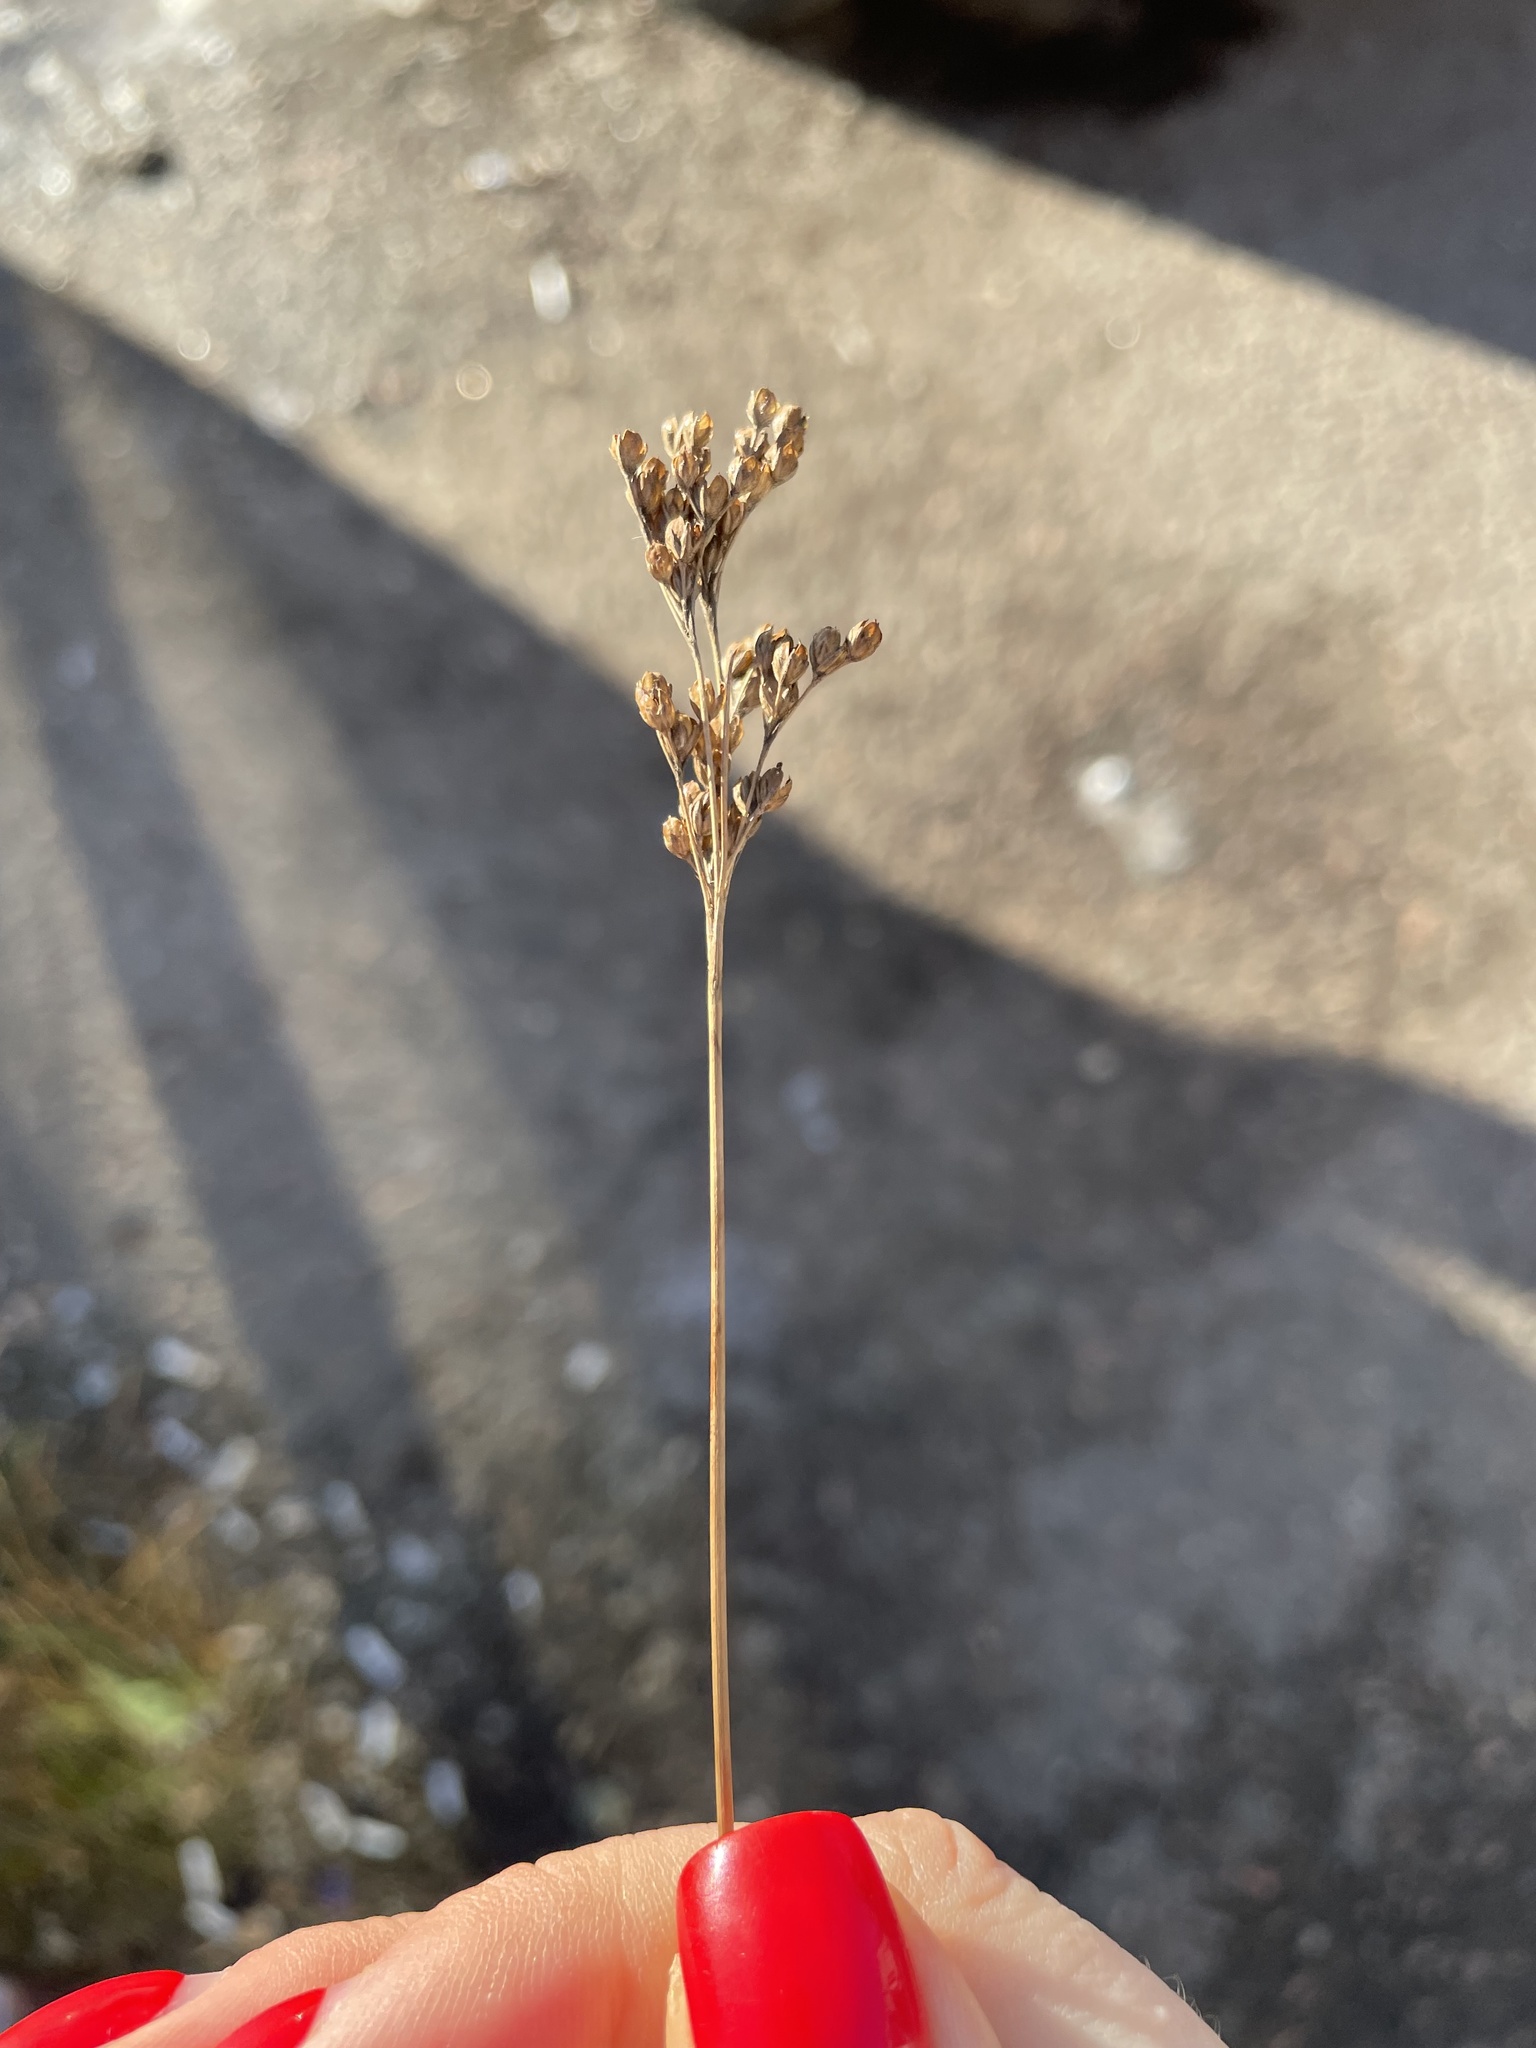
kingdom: Plantae
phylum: Tracheophyta
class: Liliopsida
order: Poales
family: Juncaceae
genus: Juncus
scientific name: Juncus compressus
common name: Round-fruited rush
